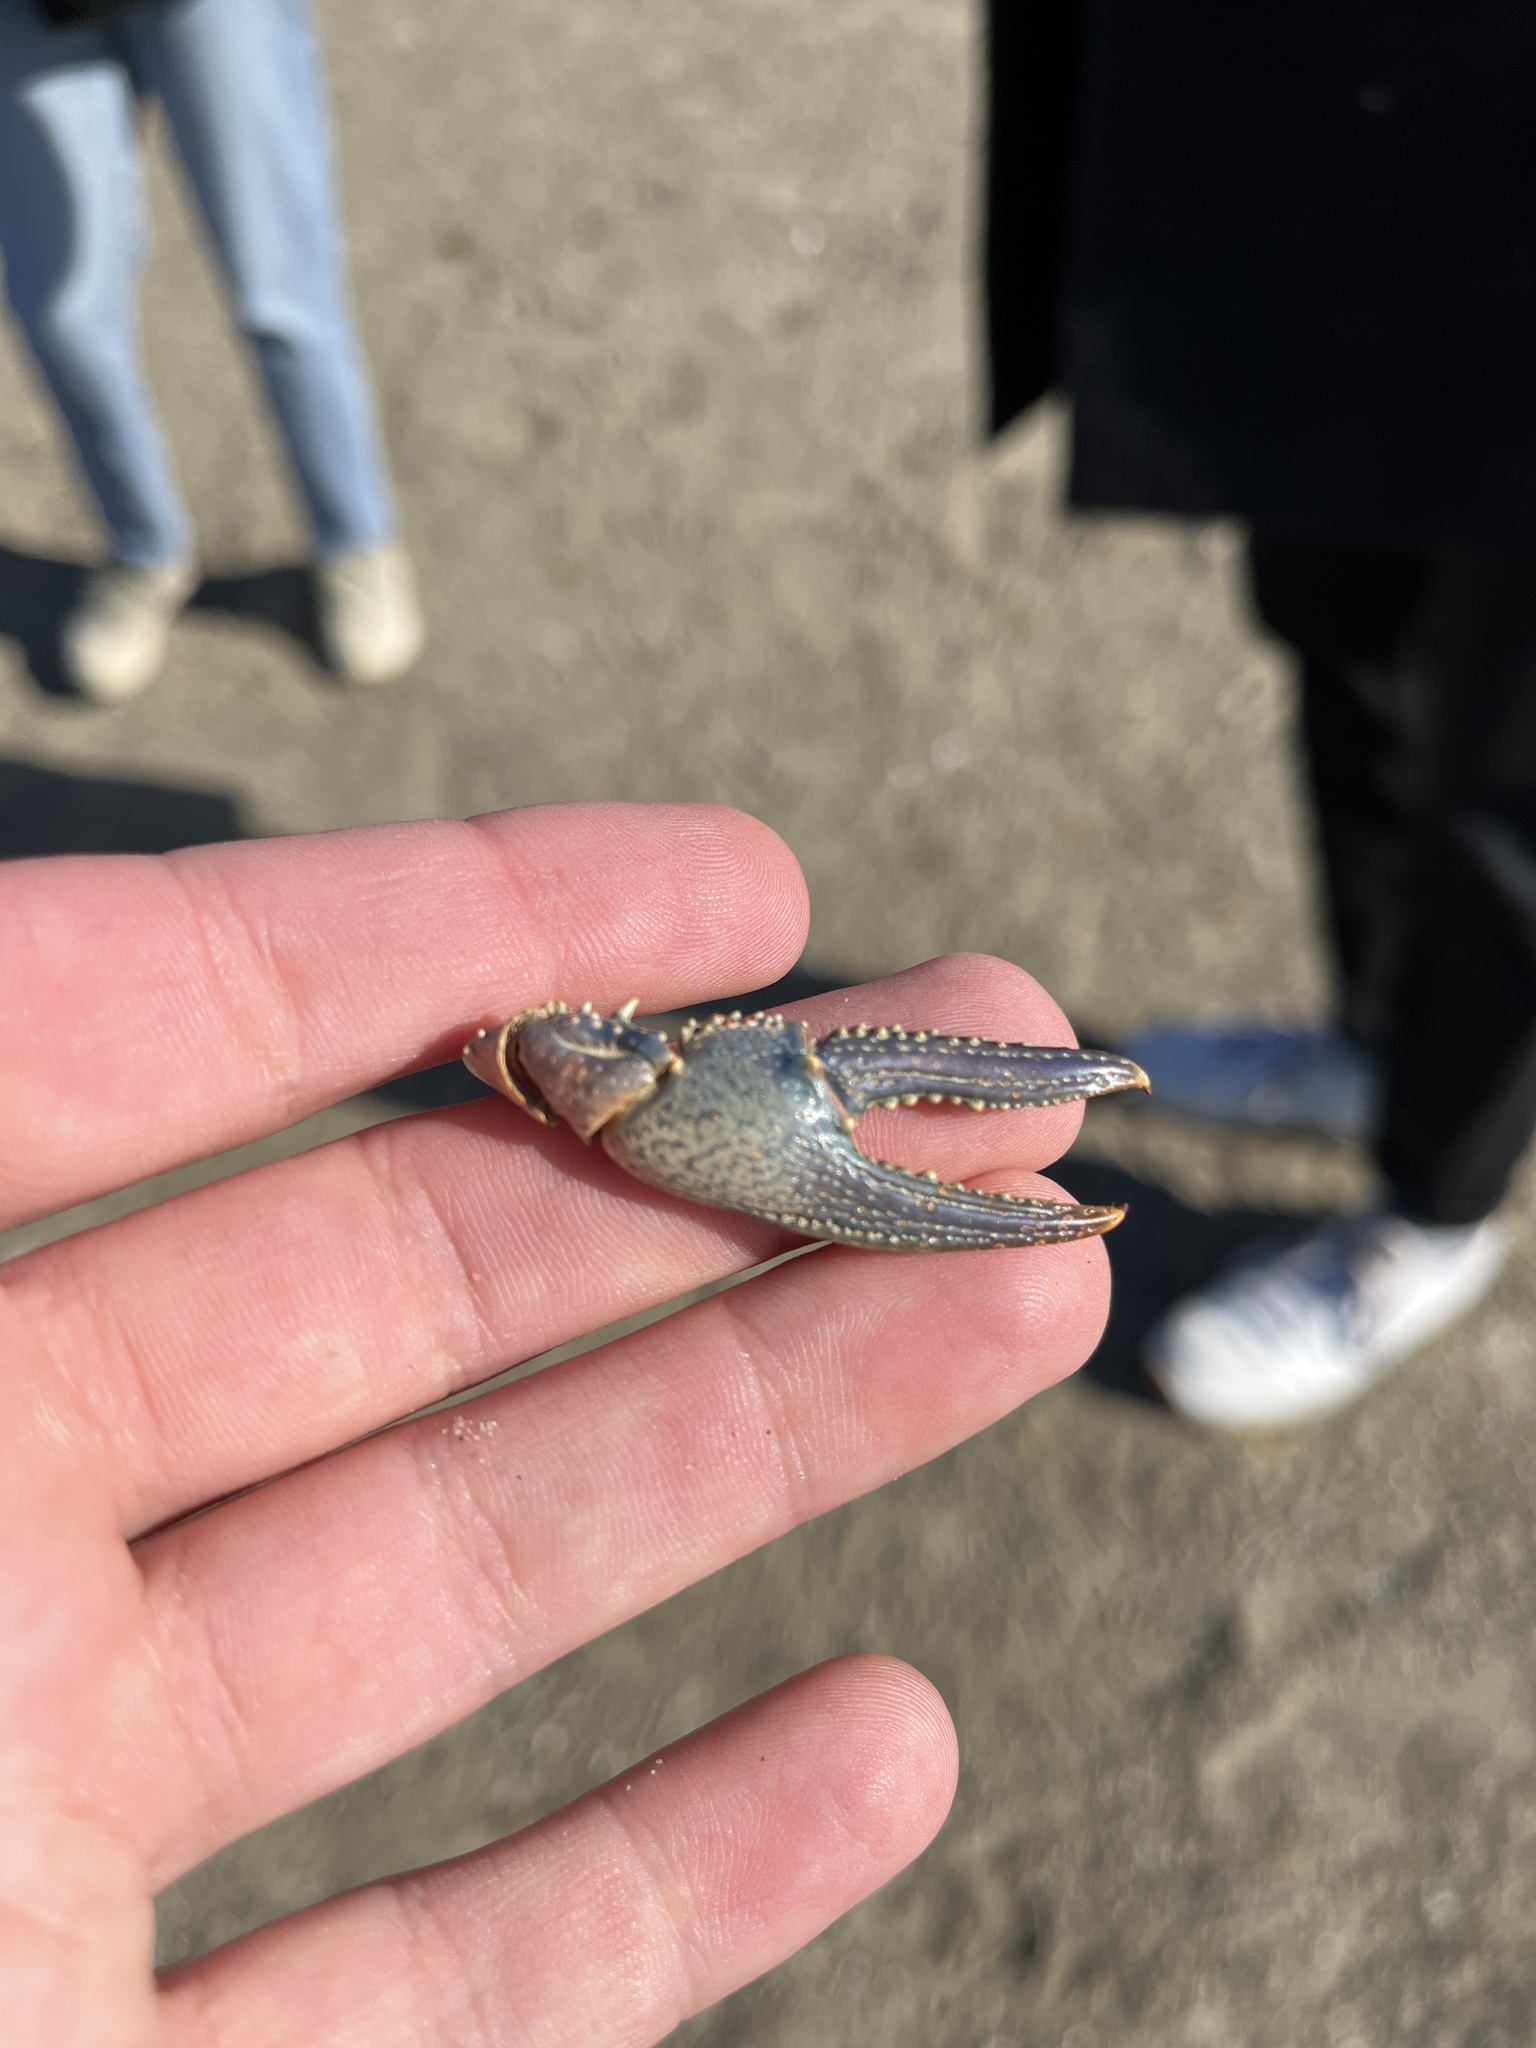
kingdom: Animalia
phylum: Arthropoda
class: Malacostraca
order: Decapoda
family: Cambaridae
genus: Faxonius
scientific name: Faxonius virilis
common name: Virile crayfish
